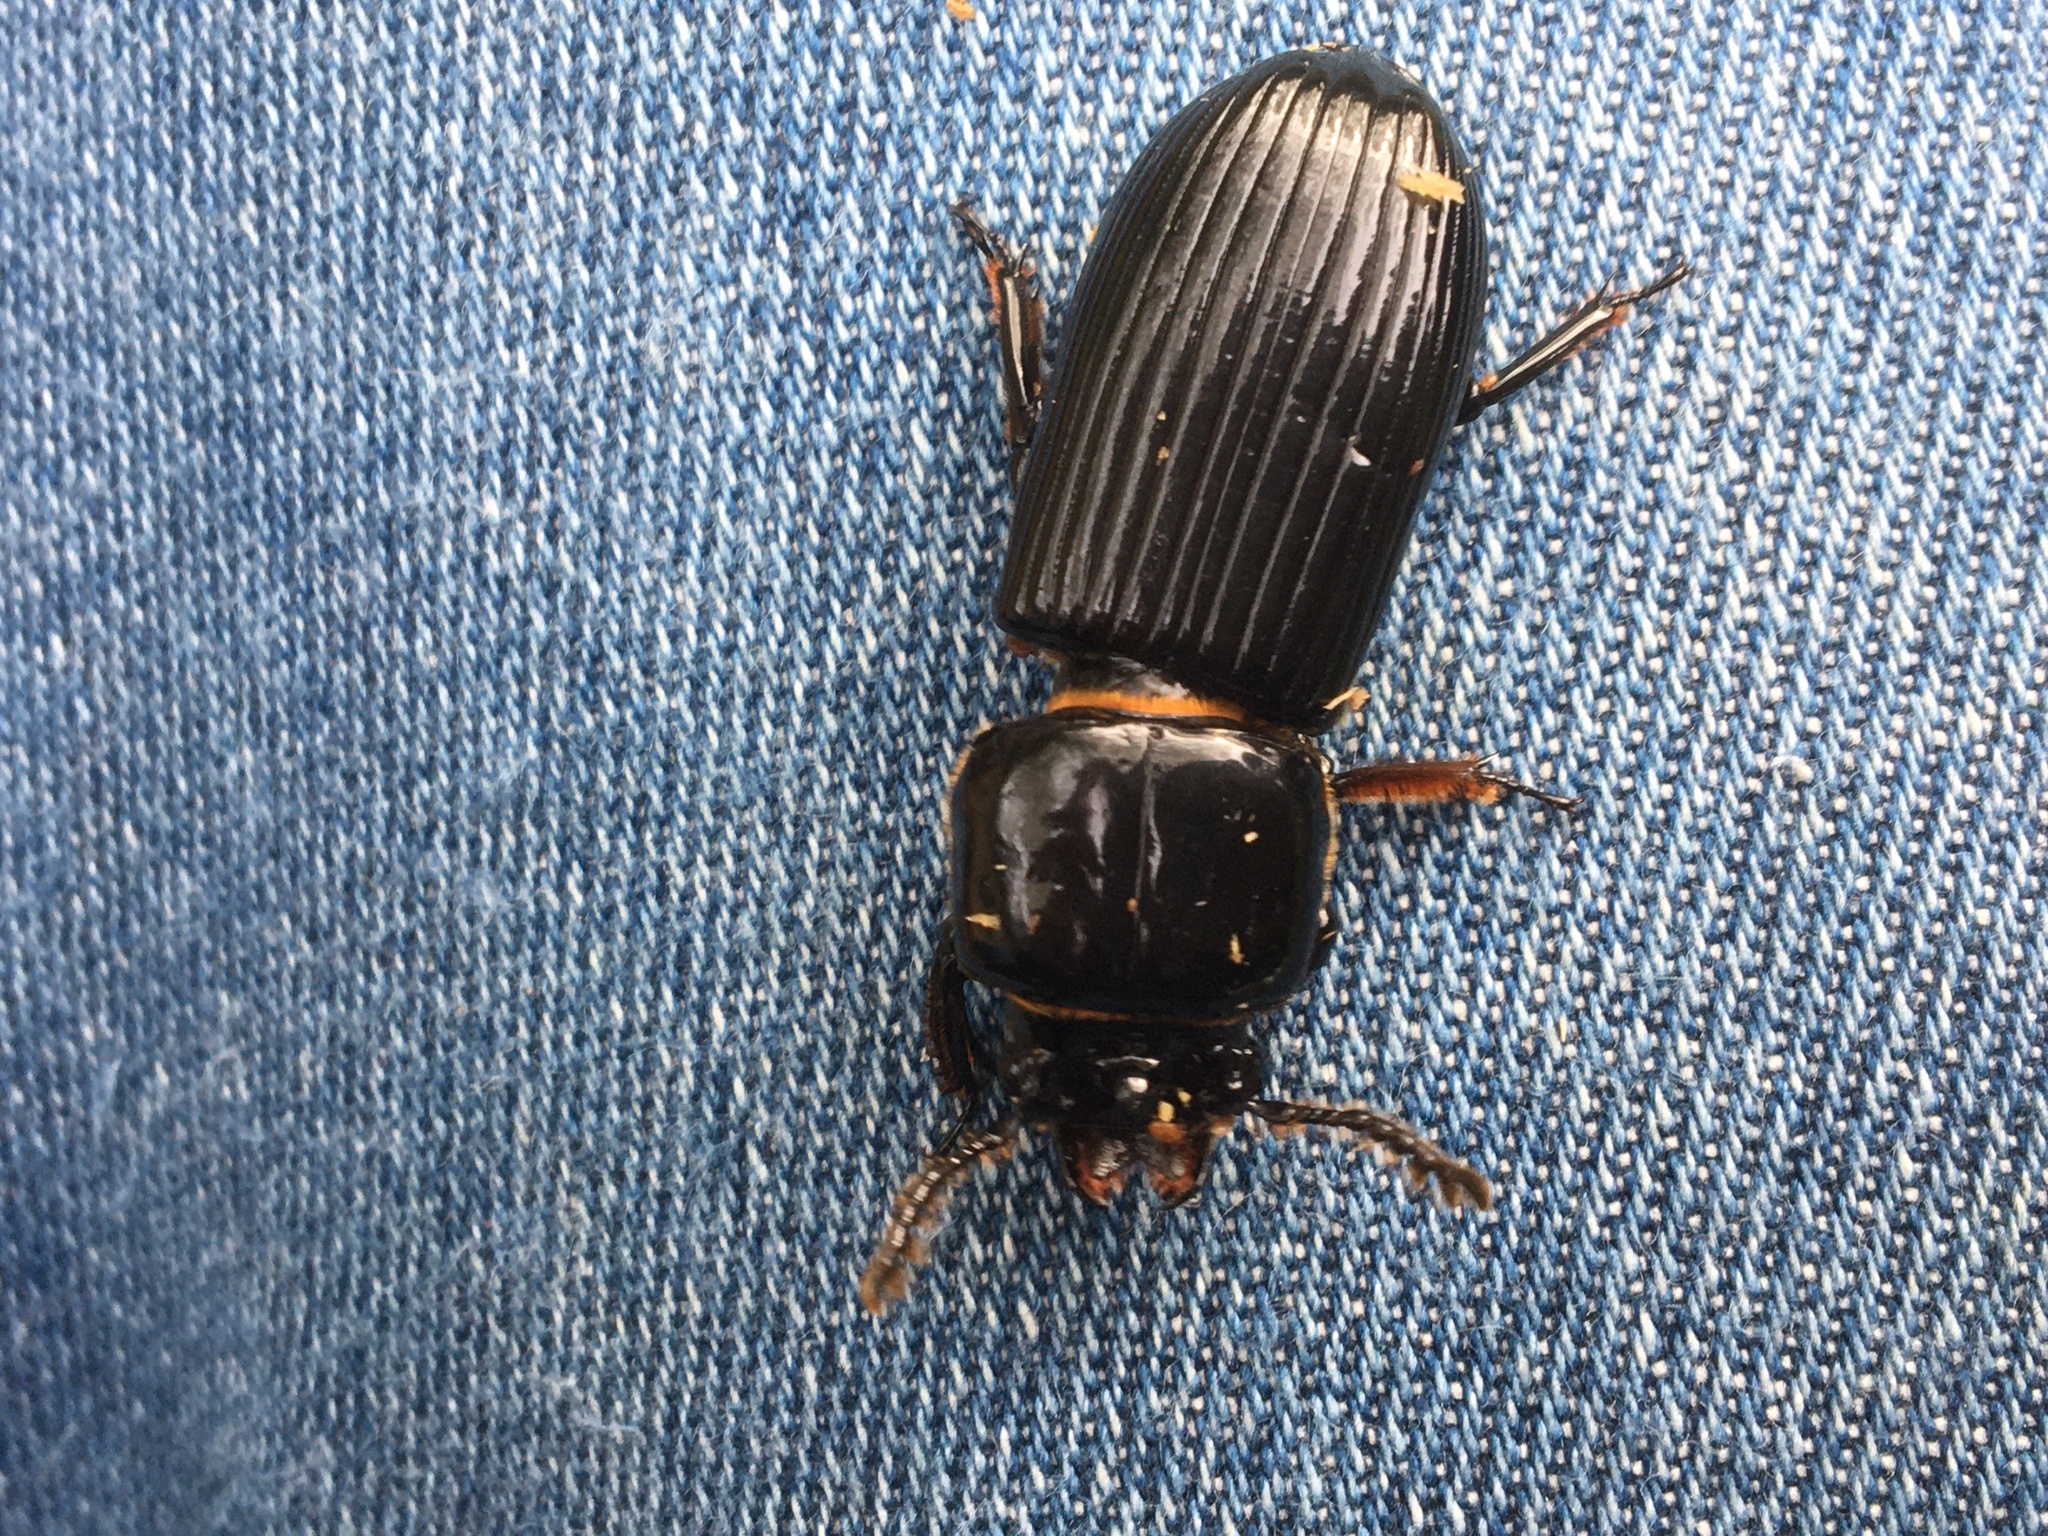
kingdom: Animalia
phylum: Arthropoda
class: Insecta
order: Coleoptera
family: Passalidae
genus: Odontotaenius
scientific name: Odontotaenius disjunctus
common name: Patent leather beetle
